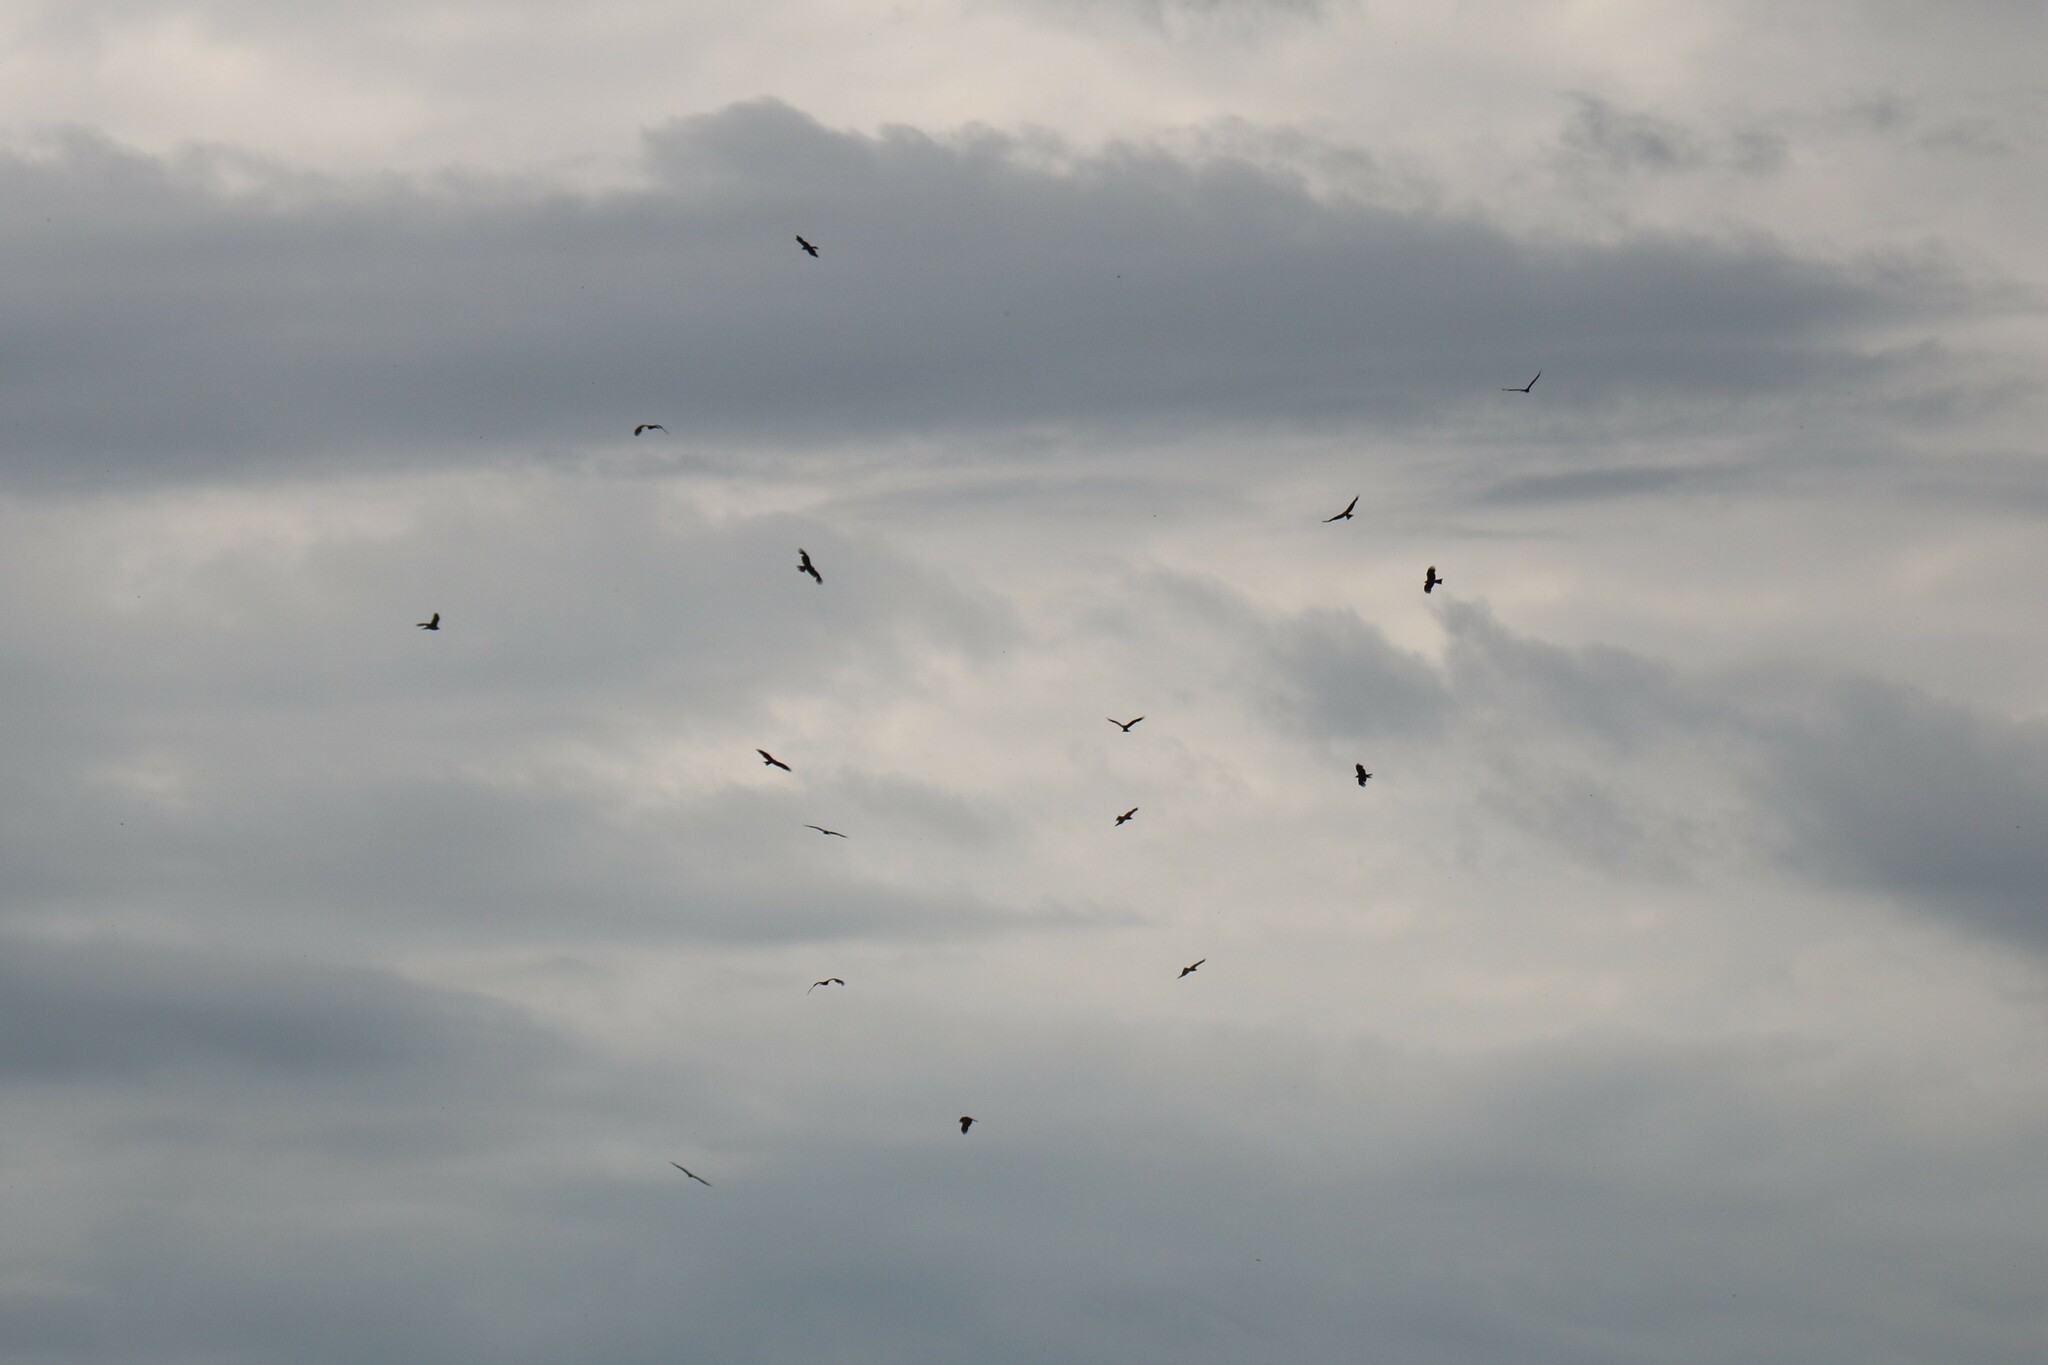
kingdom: Animalia
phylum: Chordata
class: Aves
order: Accipitriformes
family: Accipitridae
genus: Milvus
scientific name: Milvus migrans
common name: Black kite
